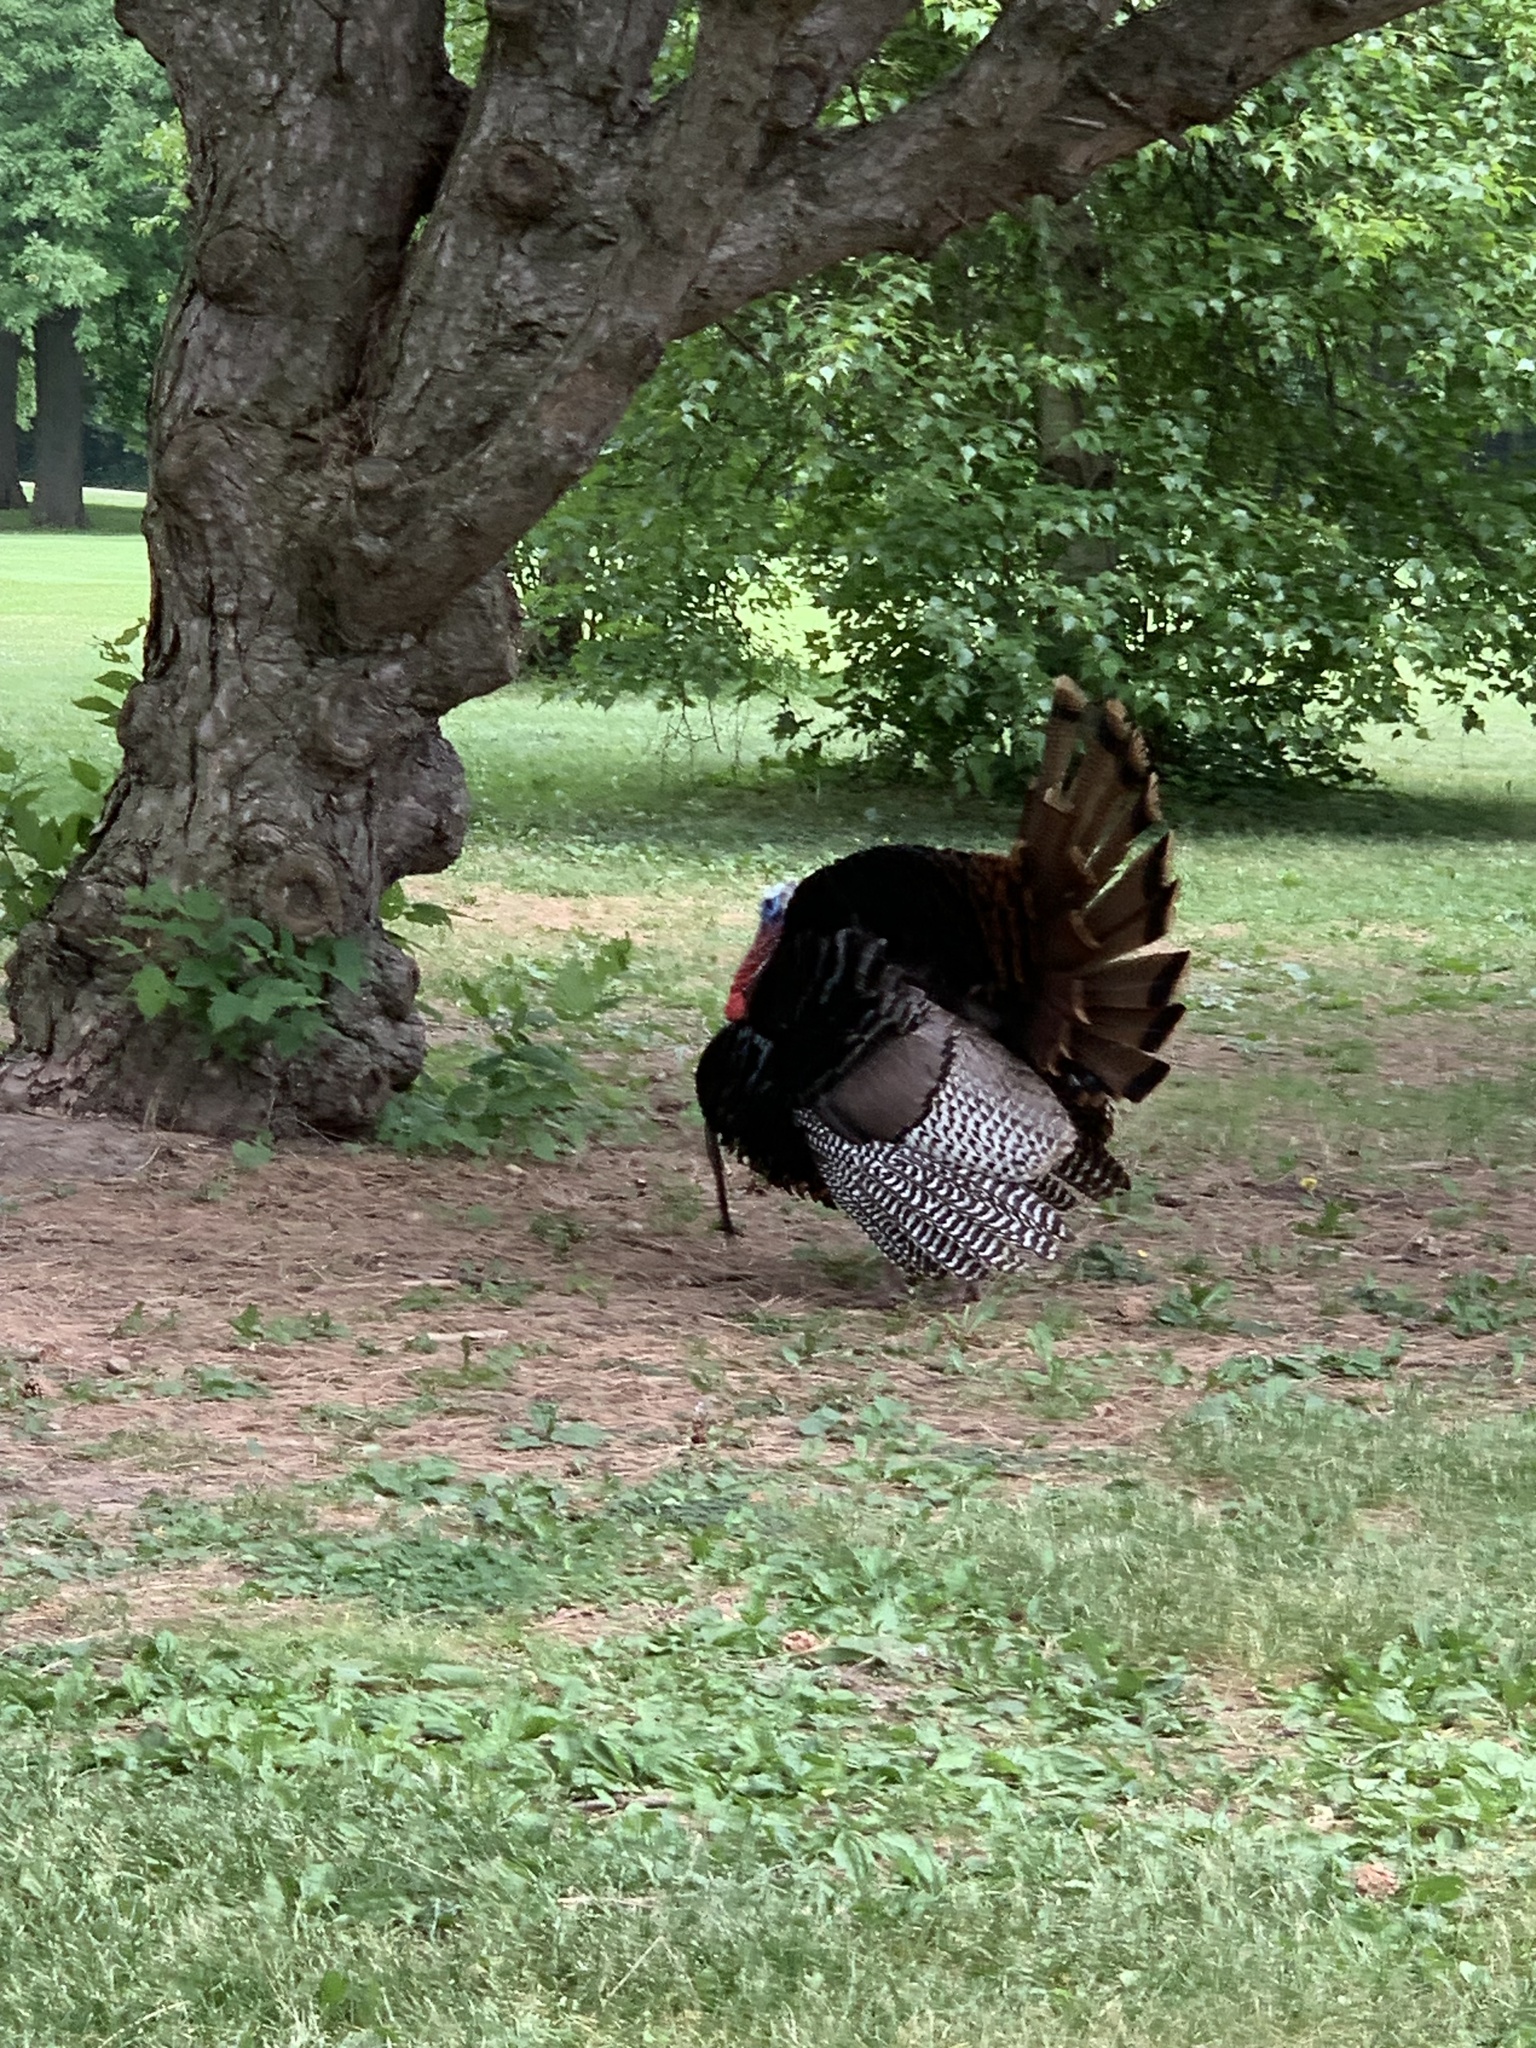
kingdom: Animalia
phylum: Chordata
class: Aves
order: Galliformes
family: Phasianidae
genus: Meleagris
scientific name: Meleagris gallopavo
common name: Wild turkey
